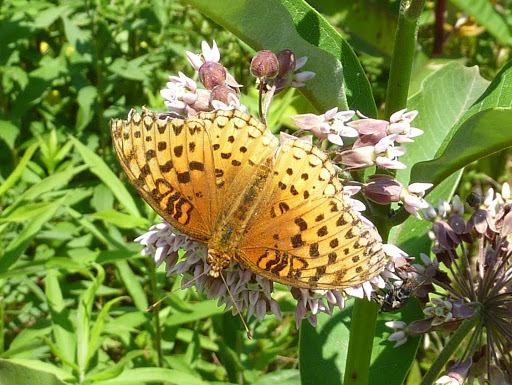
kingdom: Animalia
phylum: Arthropoda
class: Insecta
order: Lepidoptera
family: Nymphalidae
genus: Speyeria
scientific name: Speyeria cybele
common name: Great spangled fritillary
